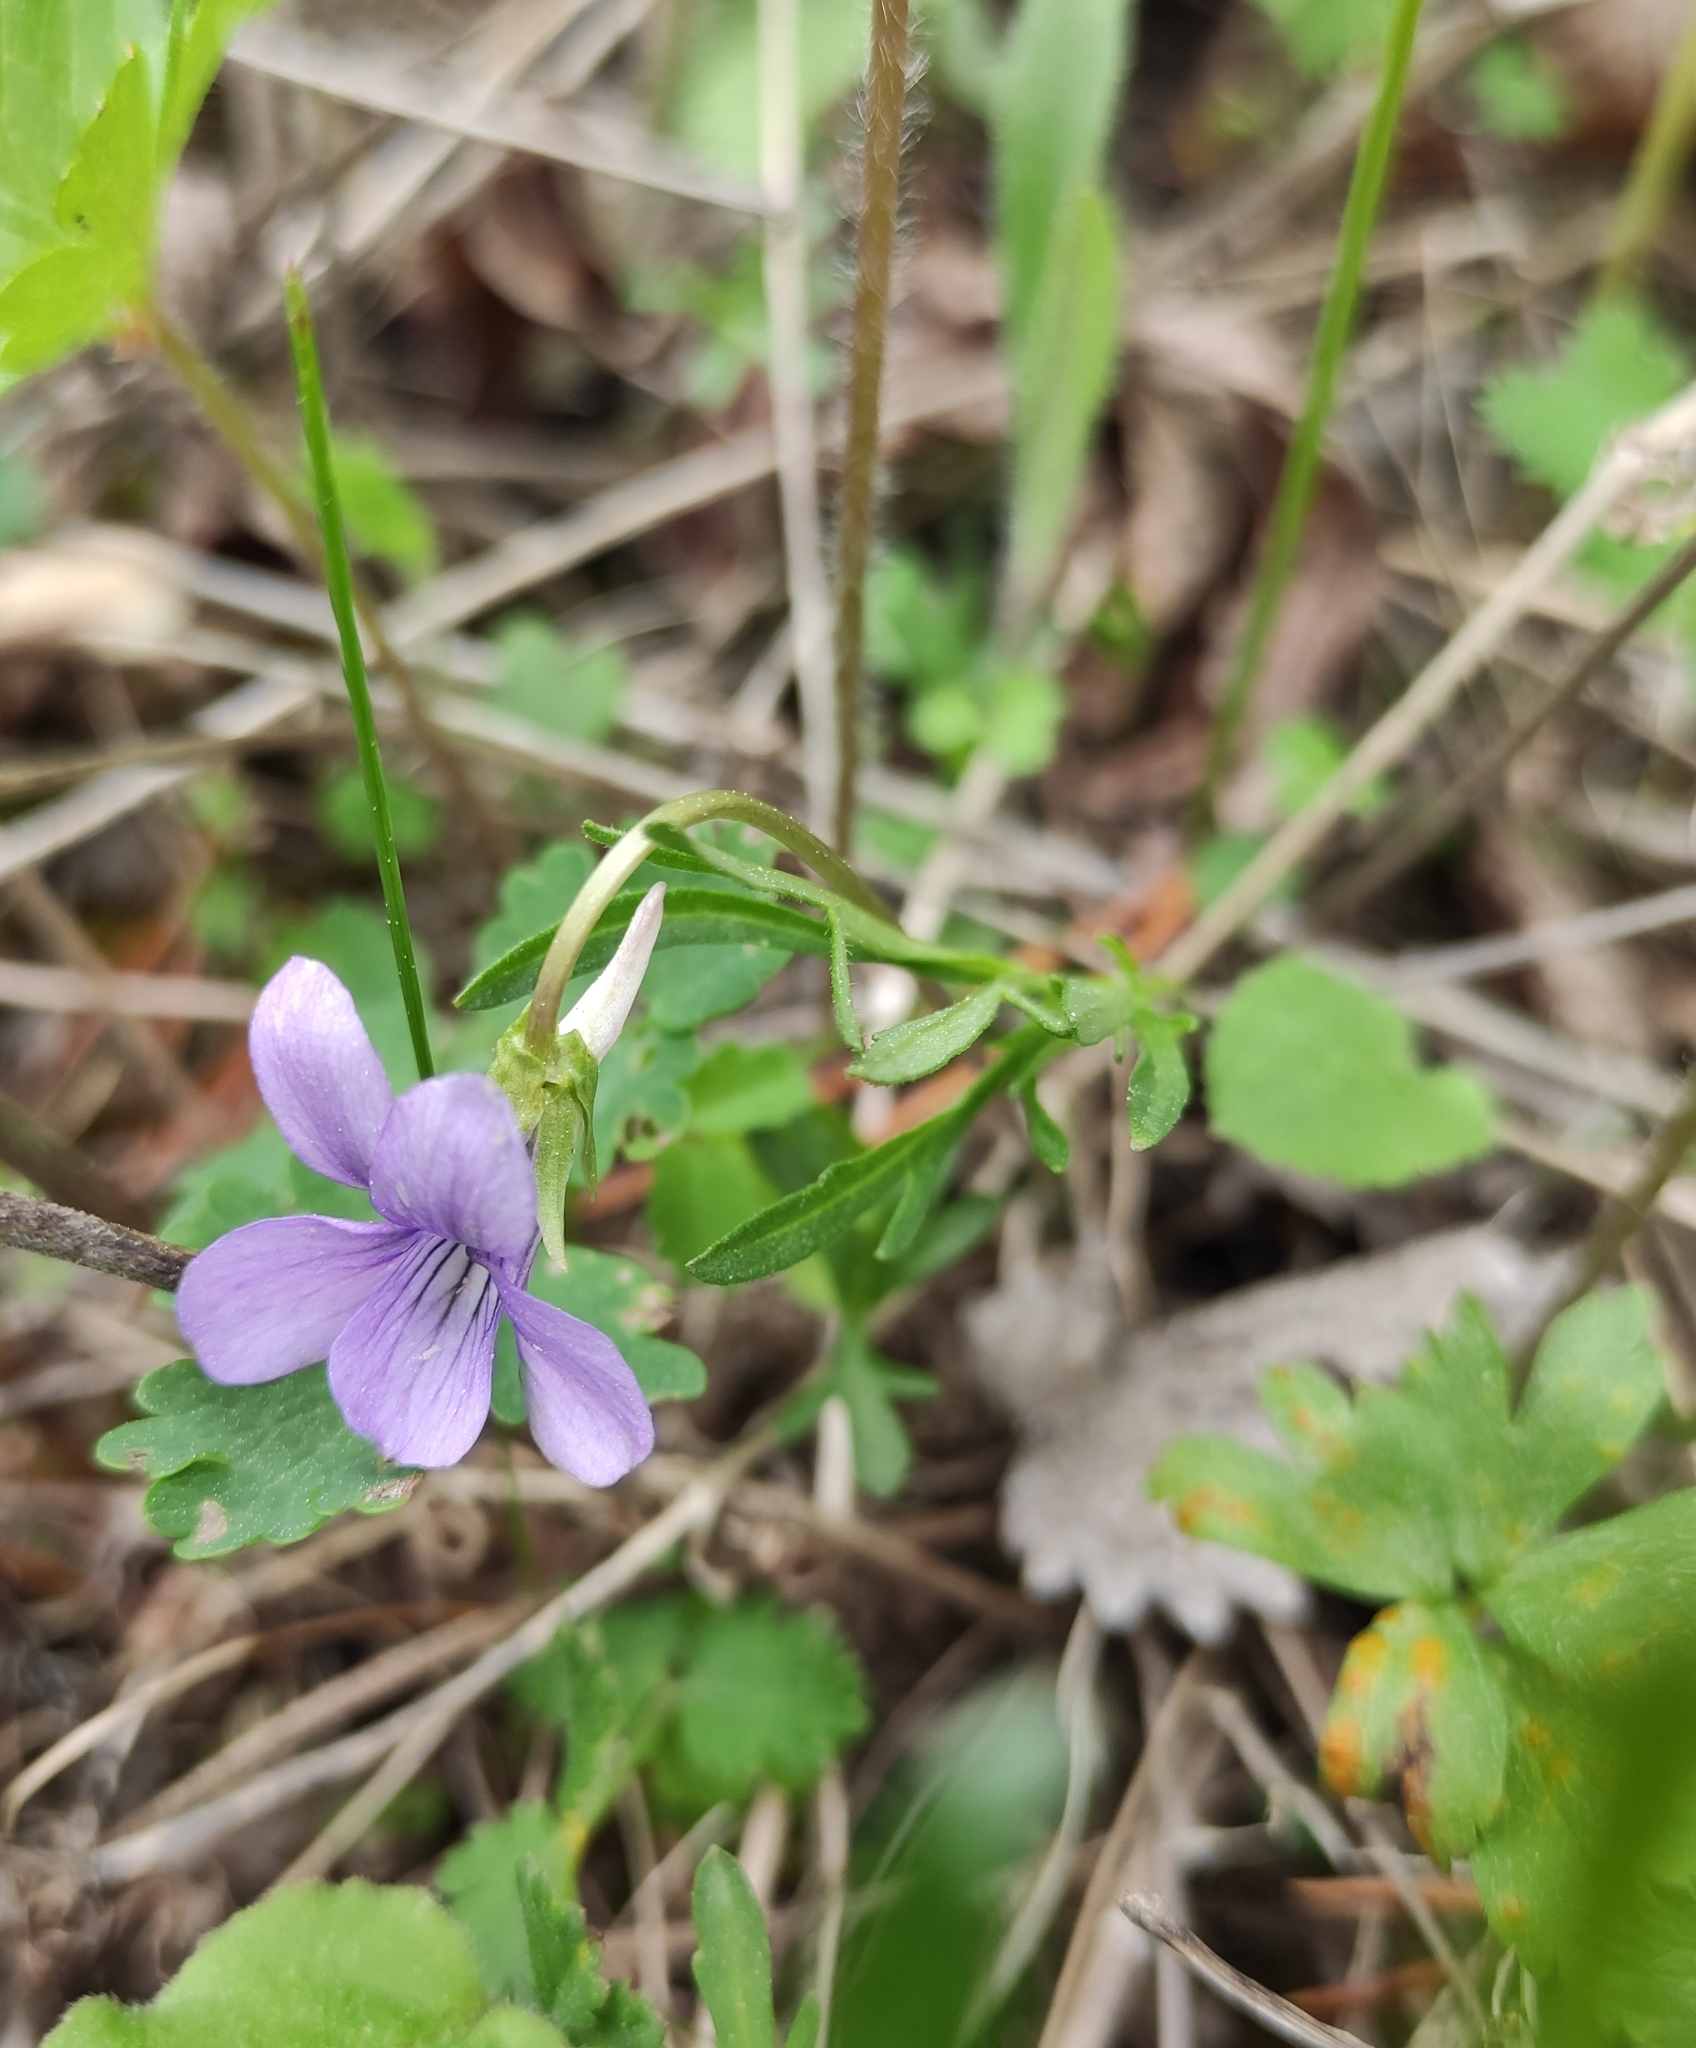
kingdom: Plantae
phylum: Tracheophyta
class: Magnoliopsida
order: Malpighiales
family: Violaceae
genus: Viola
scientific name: Viola multifida
